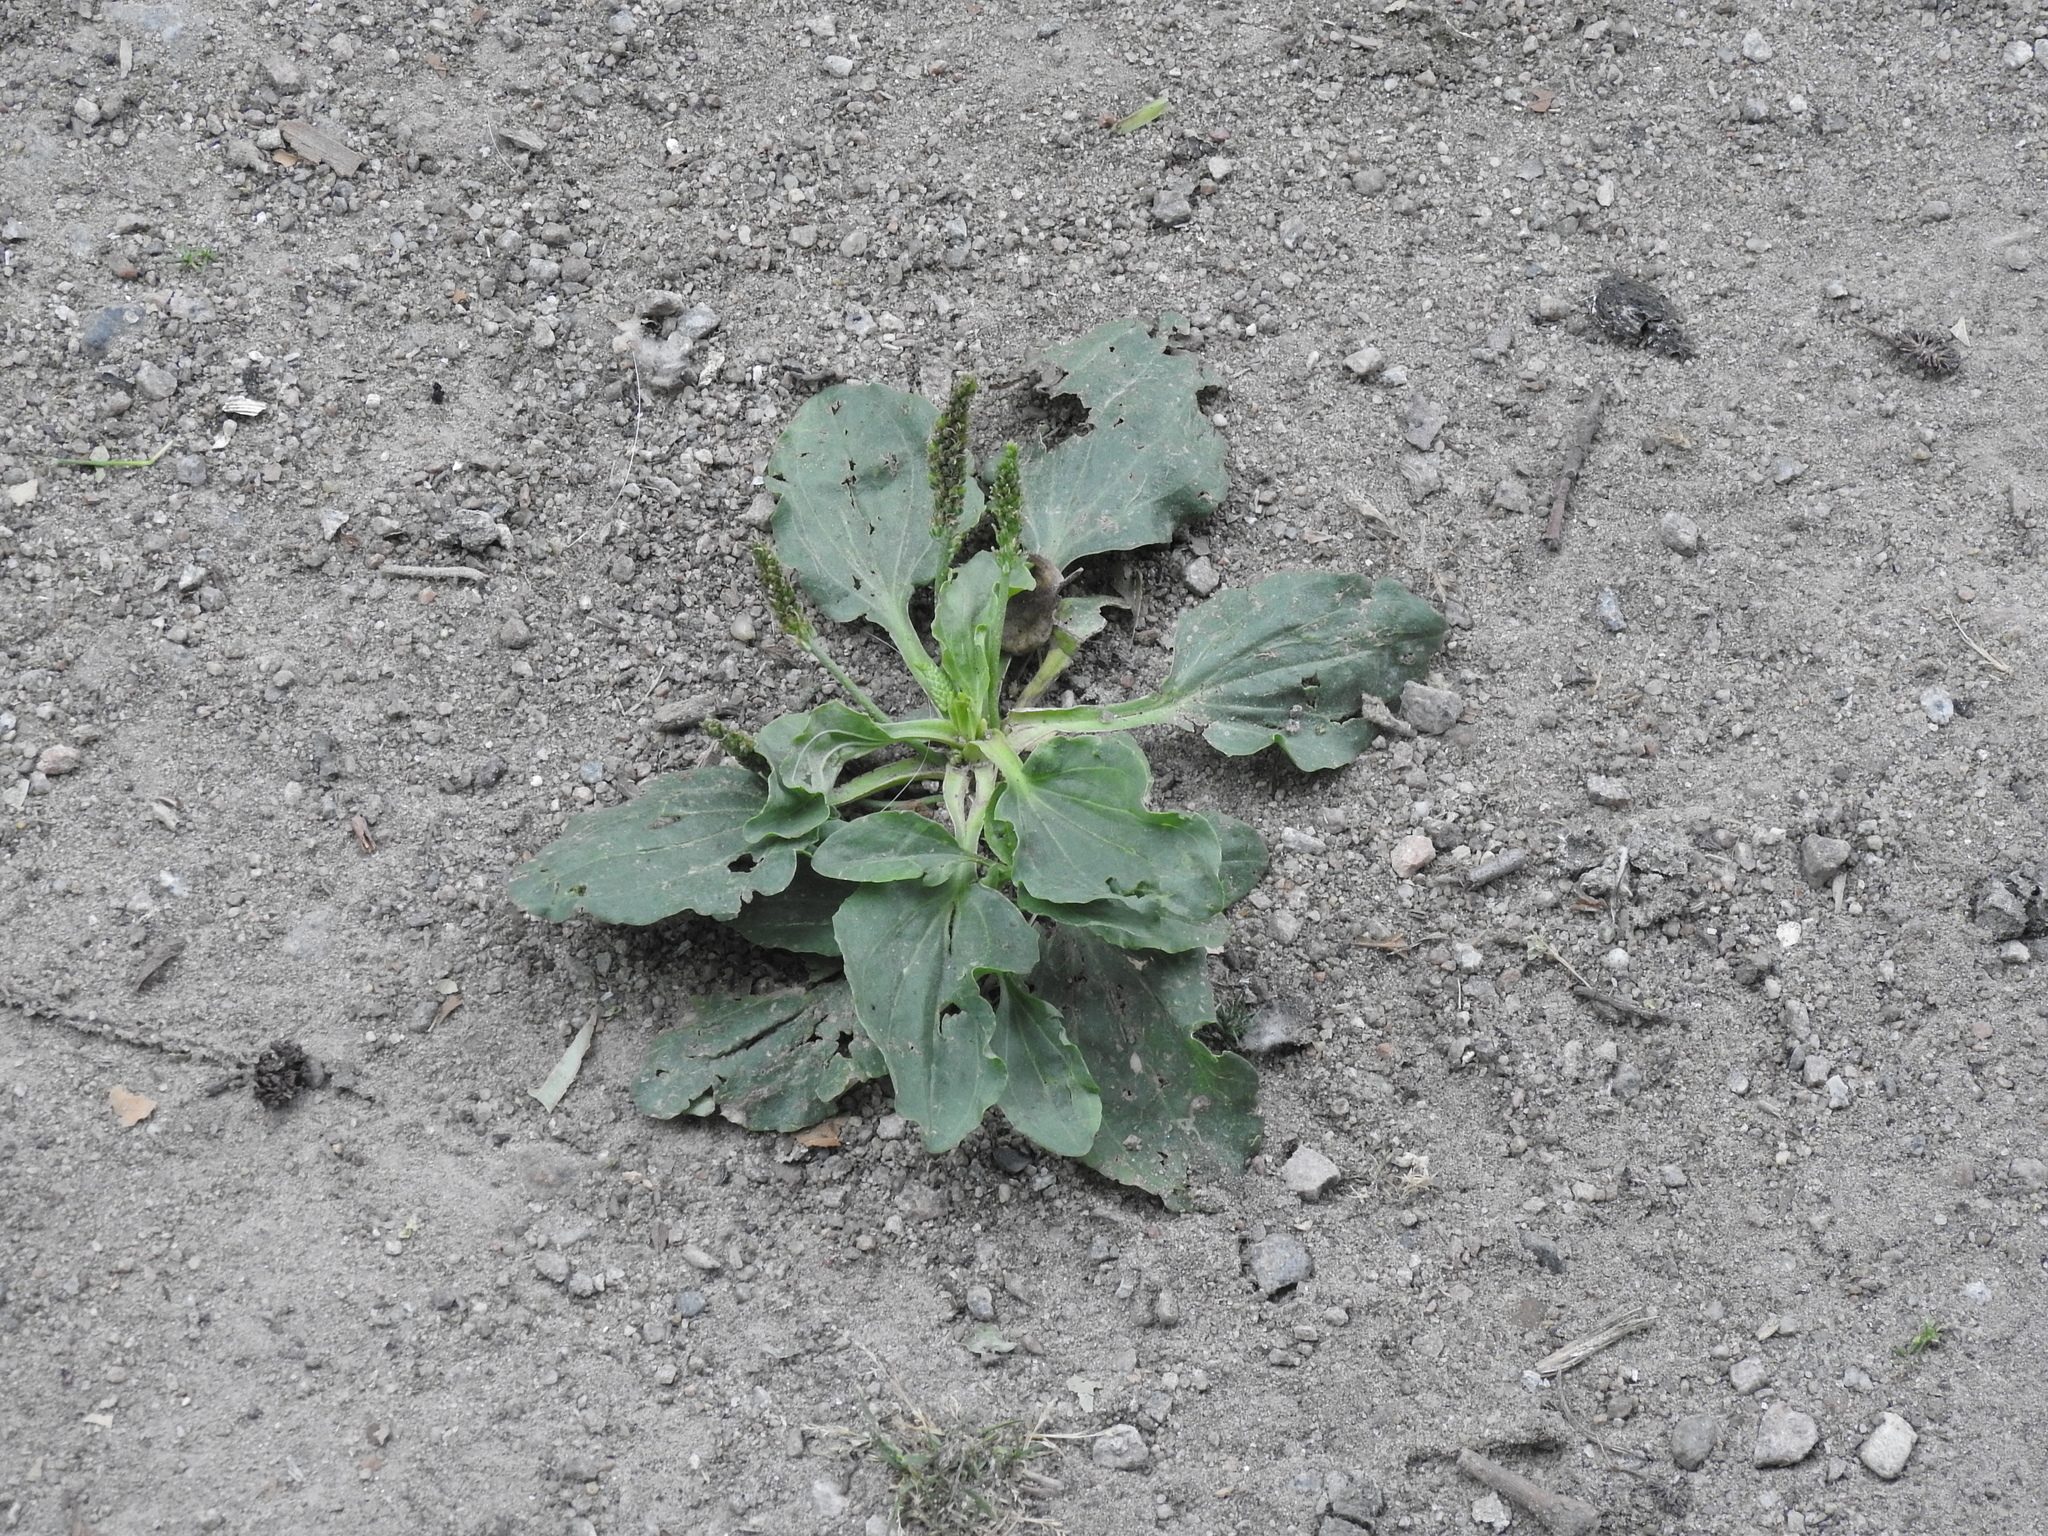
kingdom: Plantae
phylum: Tracheophyta
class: Magnoliopsida
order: Lamiales
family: Plantaginaceae
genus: Plantago
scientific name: Plantago major
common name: Common plantain
